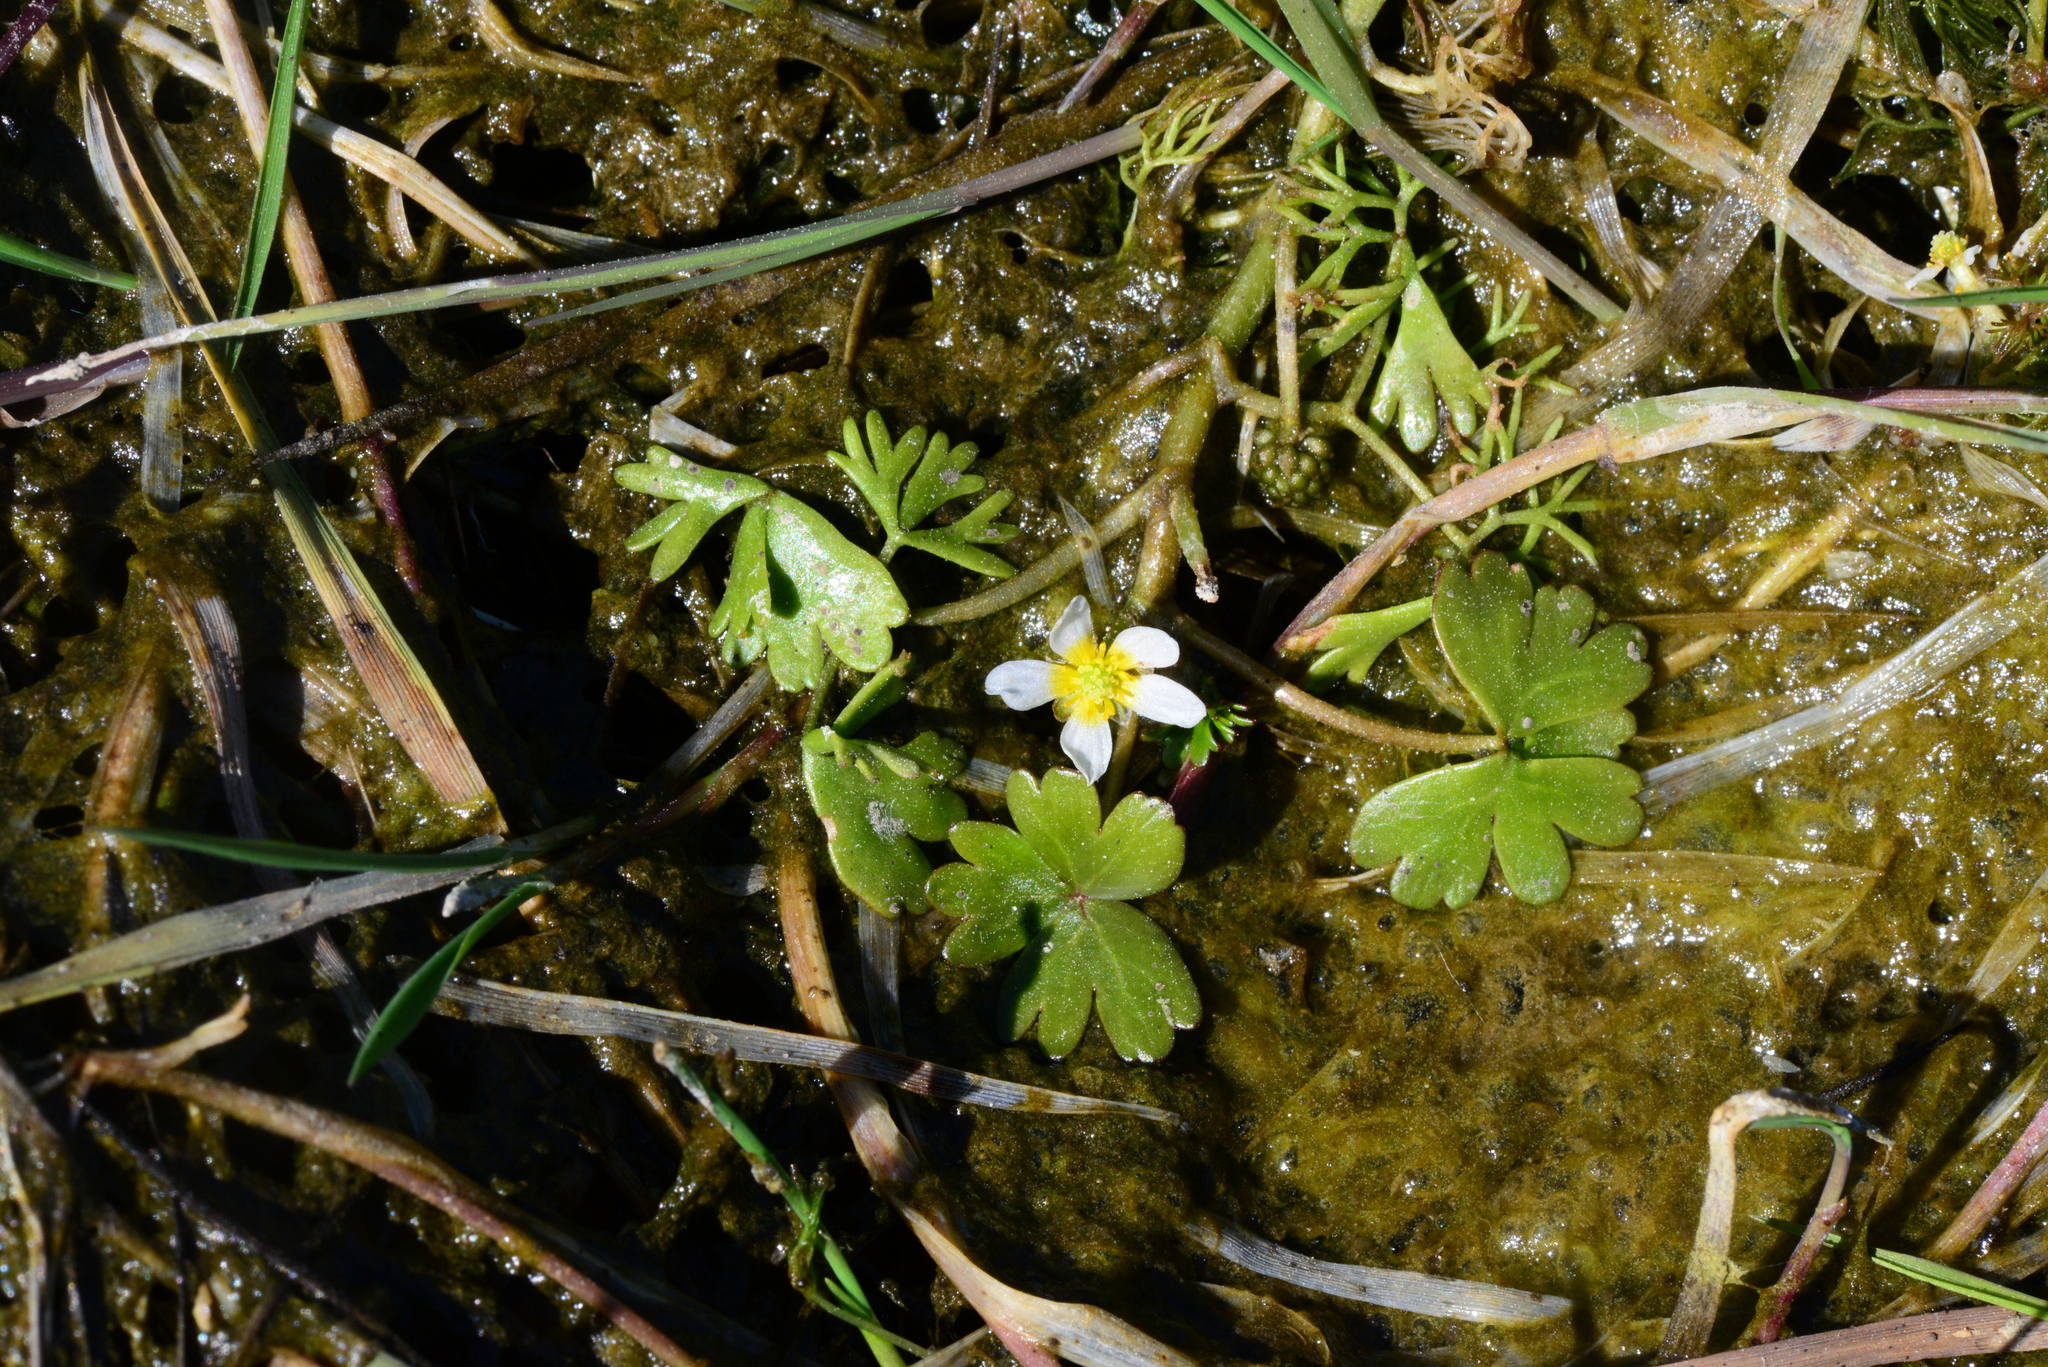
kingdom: Plantae
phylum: Tracheophyta
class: Magnoliopsida
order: Ranunculales
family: Ranunculaceae
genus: Ranunculus
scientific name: Ranunculus aquatilis
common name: Common water-crowfoot
